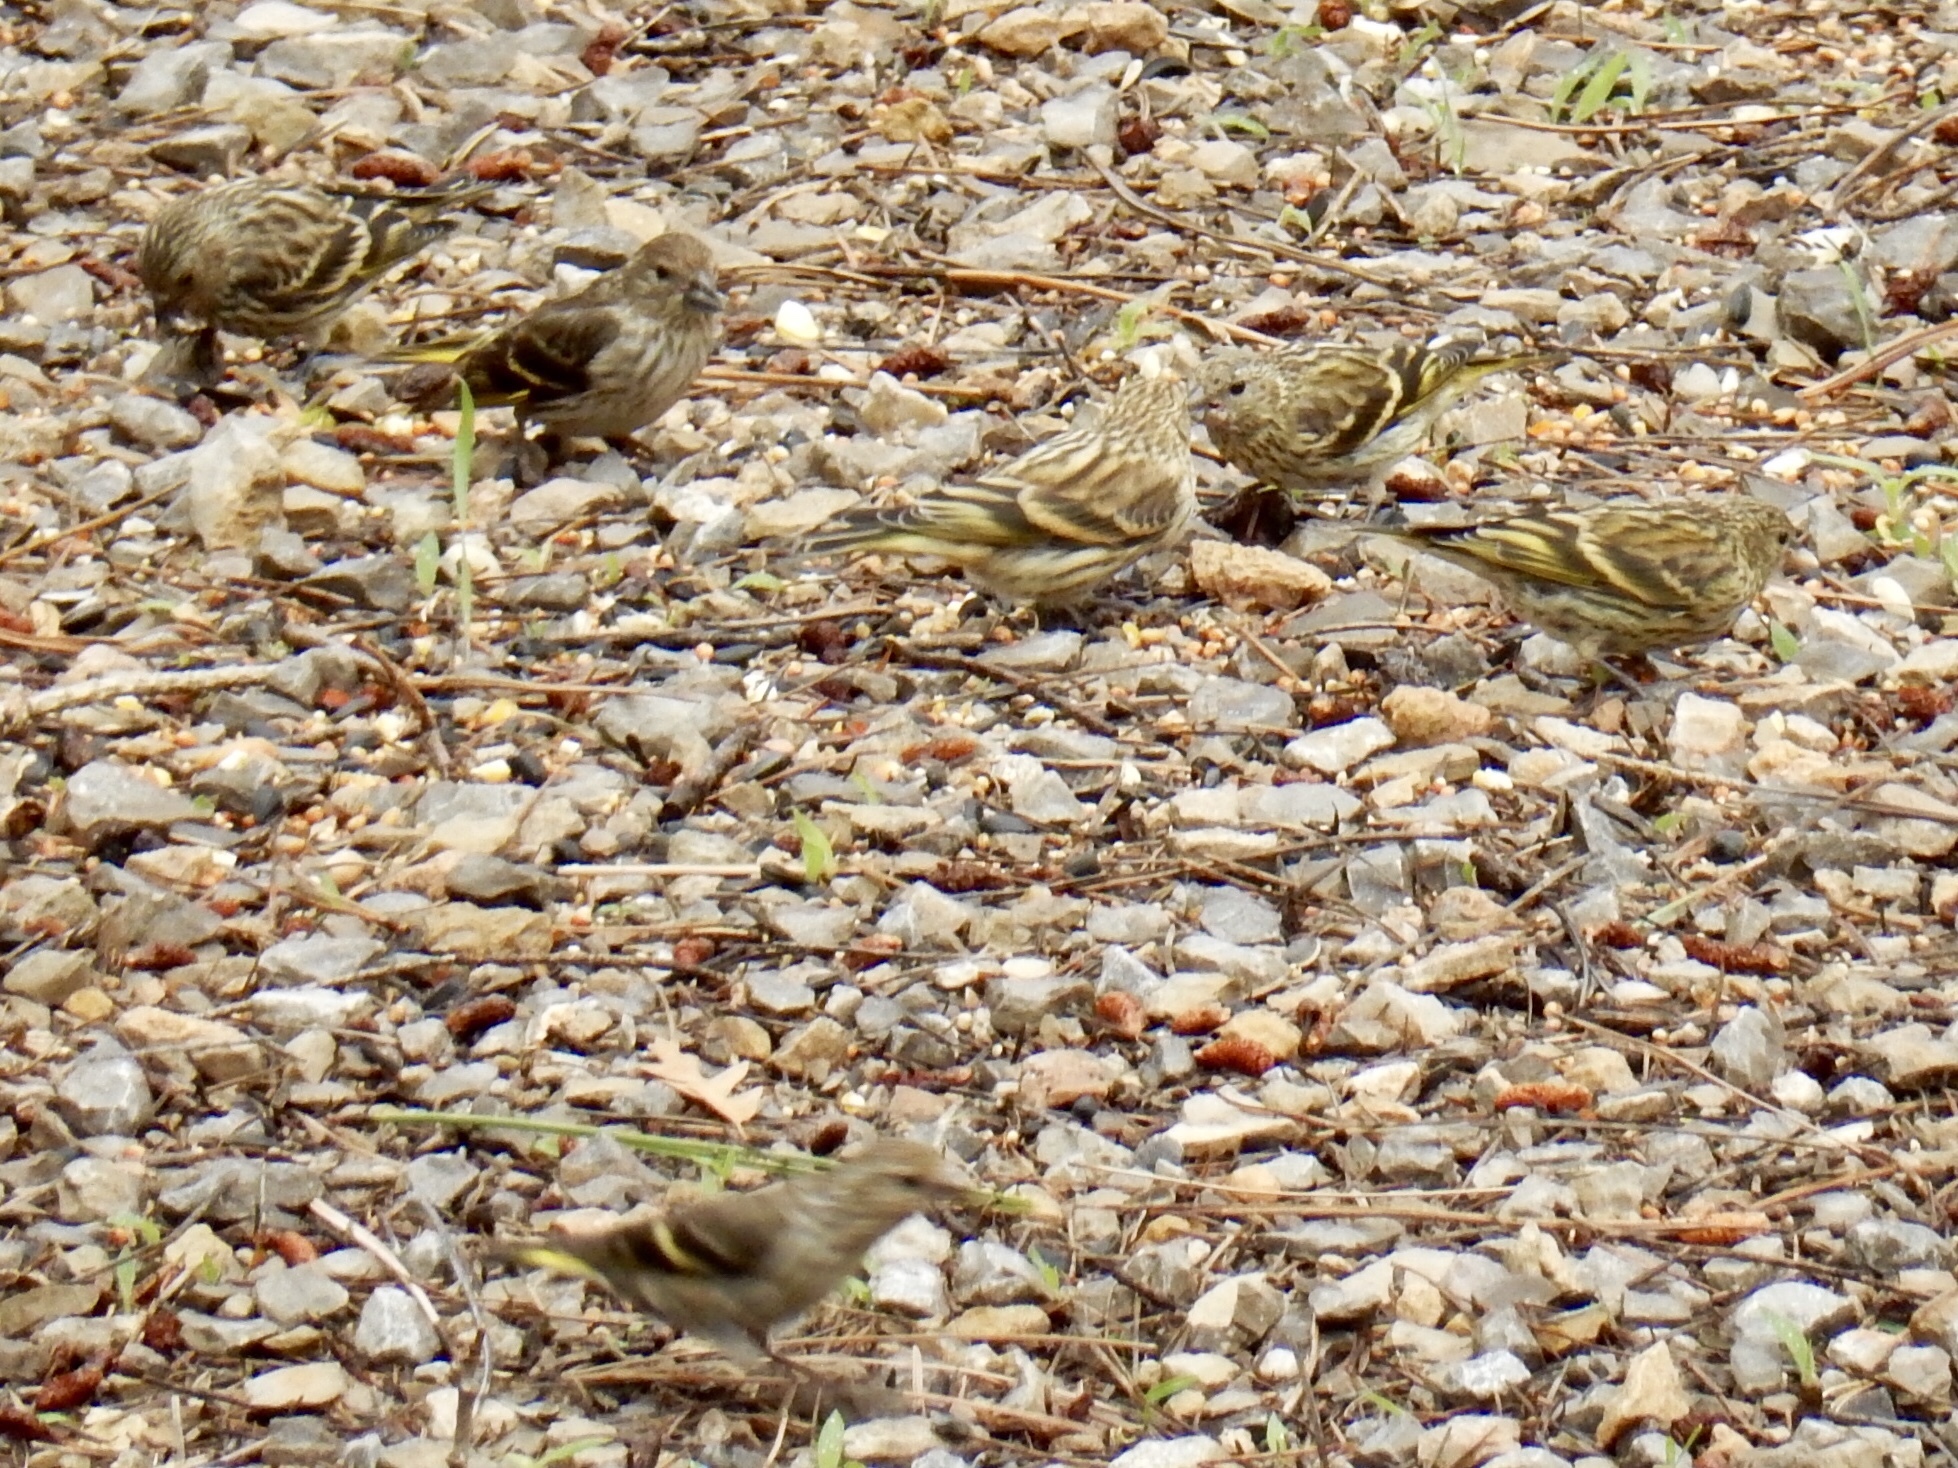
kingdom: Animalia
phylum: Chordata
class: Aves
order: Passeriformes
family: Fringillidae
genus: Spinus
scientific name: Spinus pinus
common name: Pine siskin
